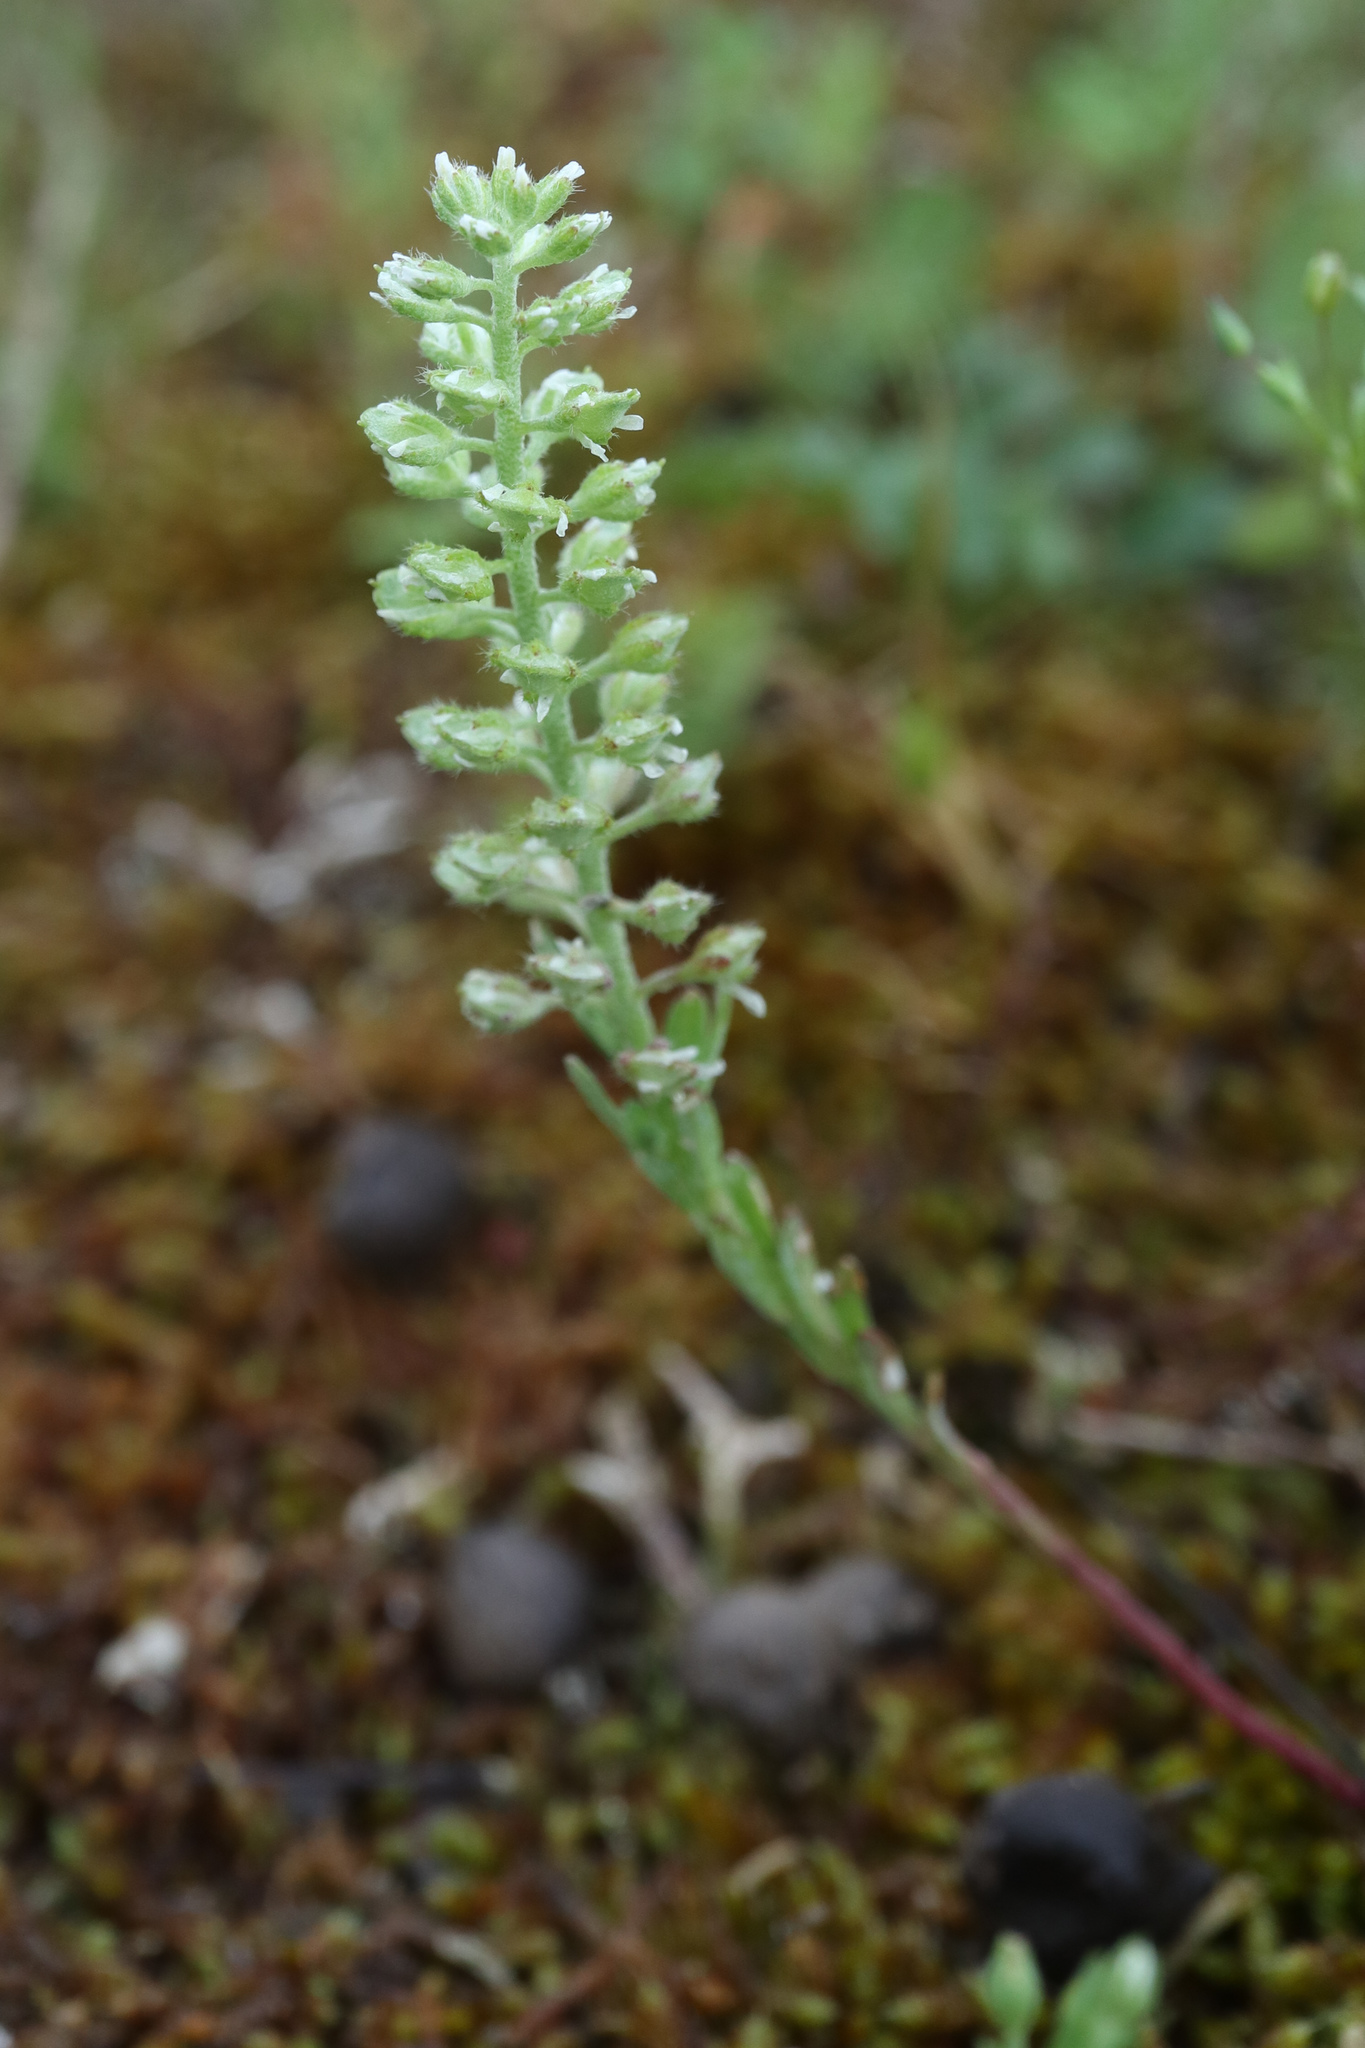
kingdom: Plantae
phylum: Tracheophyta
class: Magnoliopsida
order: Brassicales
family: Brassicaceae
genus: Alyssum
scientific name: Alyssum alyssoides
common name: Small alison
